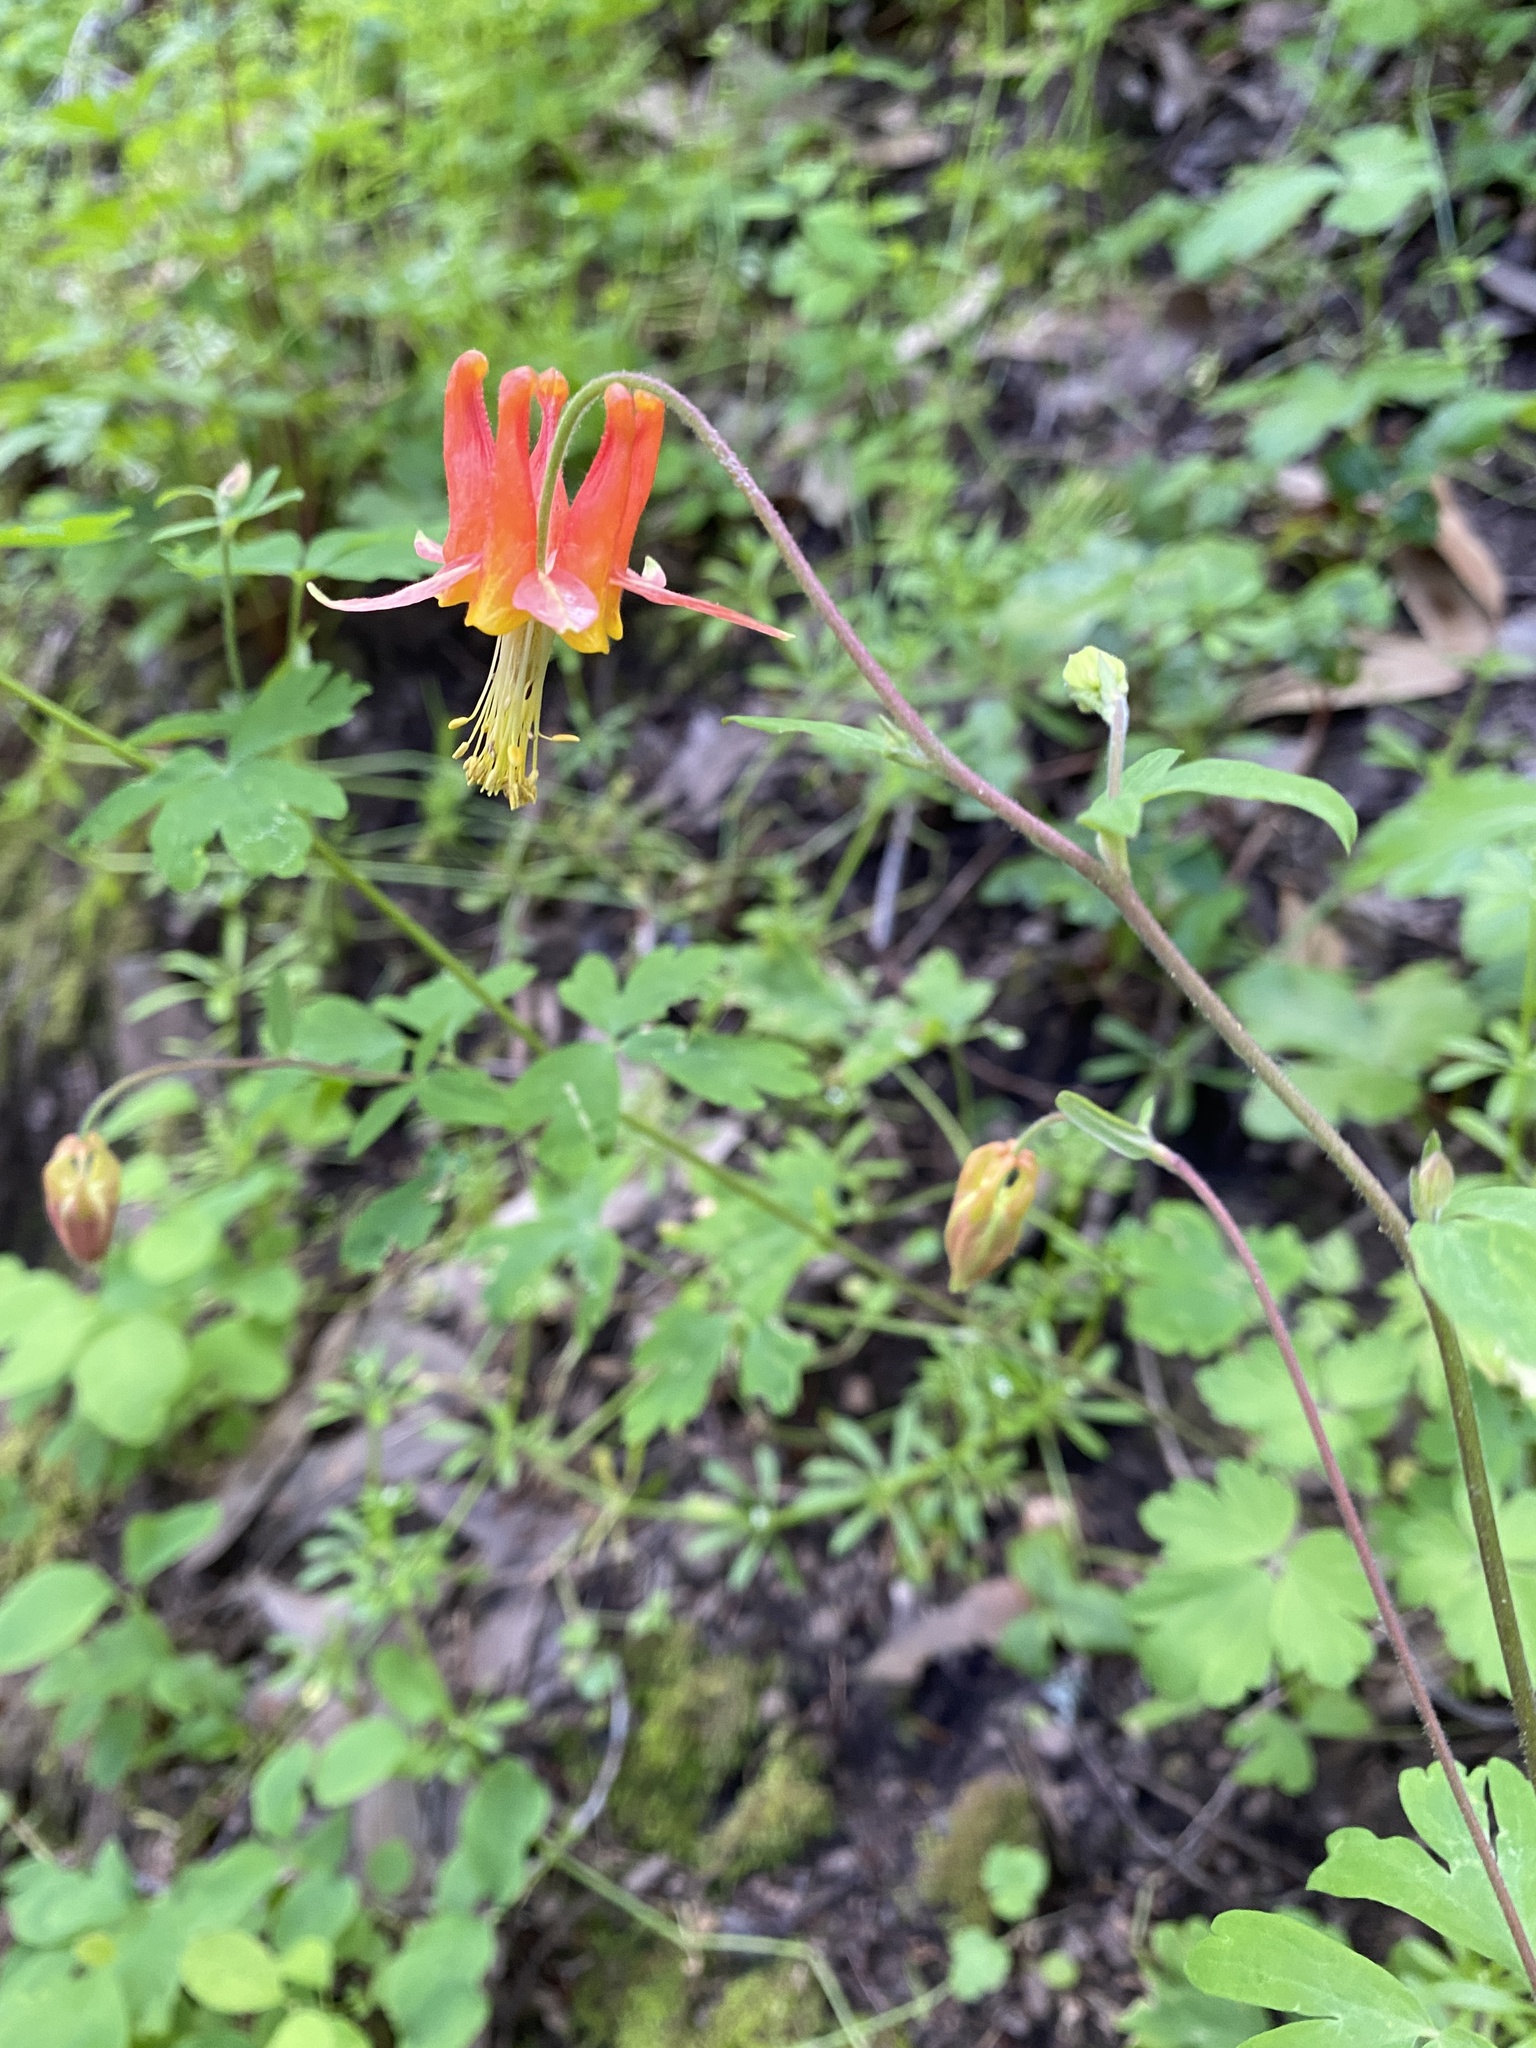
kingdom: Plantae
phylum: Tracheophyta
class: Magnoliopsida
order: Ranunculales
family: Ranunculaceae
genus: Aquilegia
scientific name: Aquilegia formosa
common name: Sitka columbine
